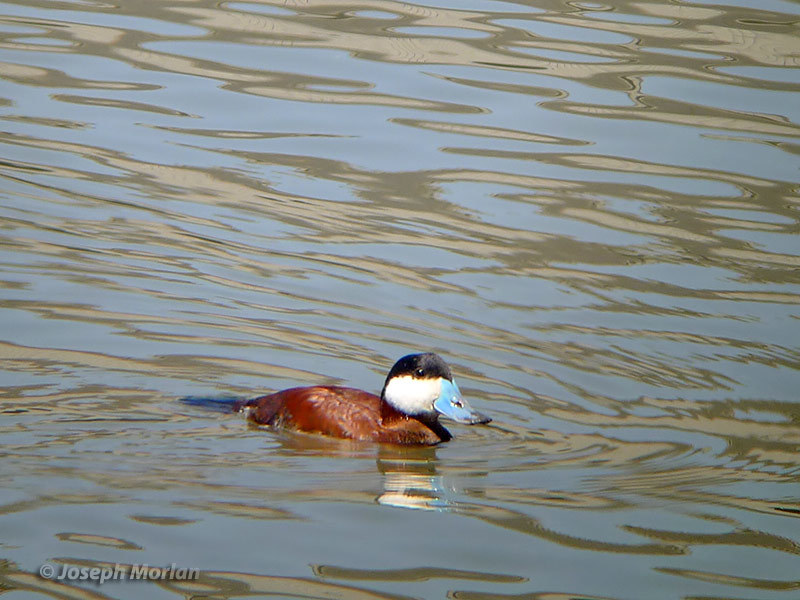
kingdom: Animalia
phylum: Chordata
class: Aves
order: Anseriformes
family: Anatidae
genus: Oxyura
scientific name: Oxyura jamaicensis
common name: Ruddy duck
